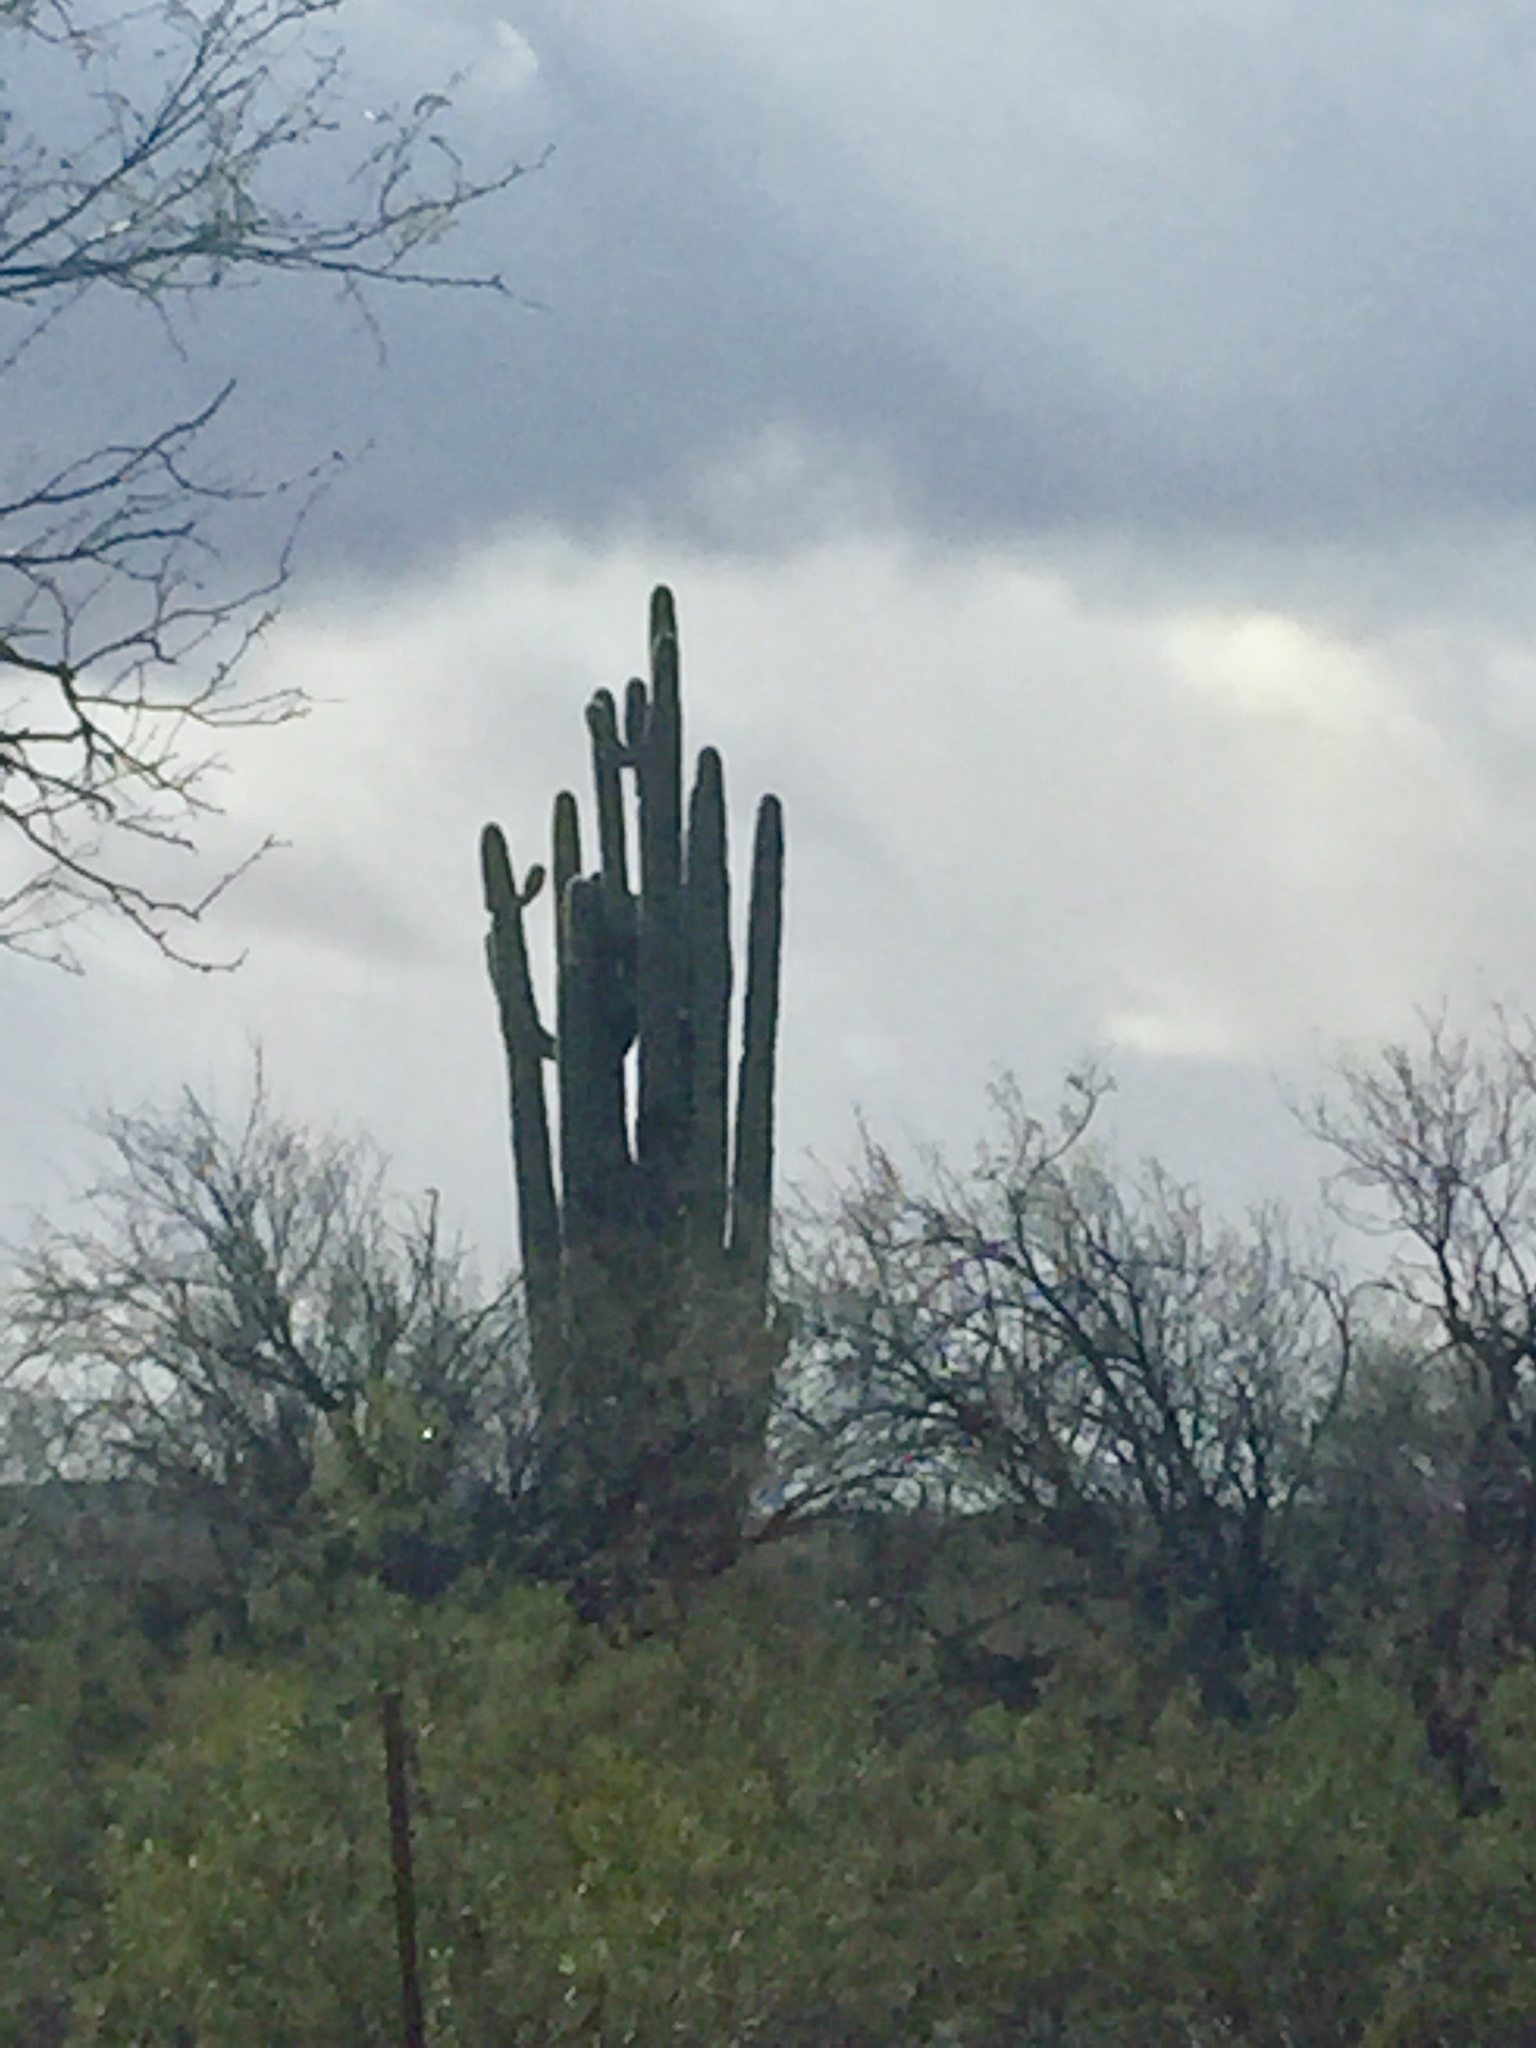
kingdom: Plantae
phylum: Tracheophyta
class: Magnoliopsida
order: Caryophyllales
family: Cactaceae
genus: Carnegiea
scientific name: Carnegiea gigantea
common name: Saguaro
